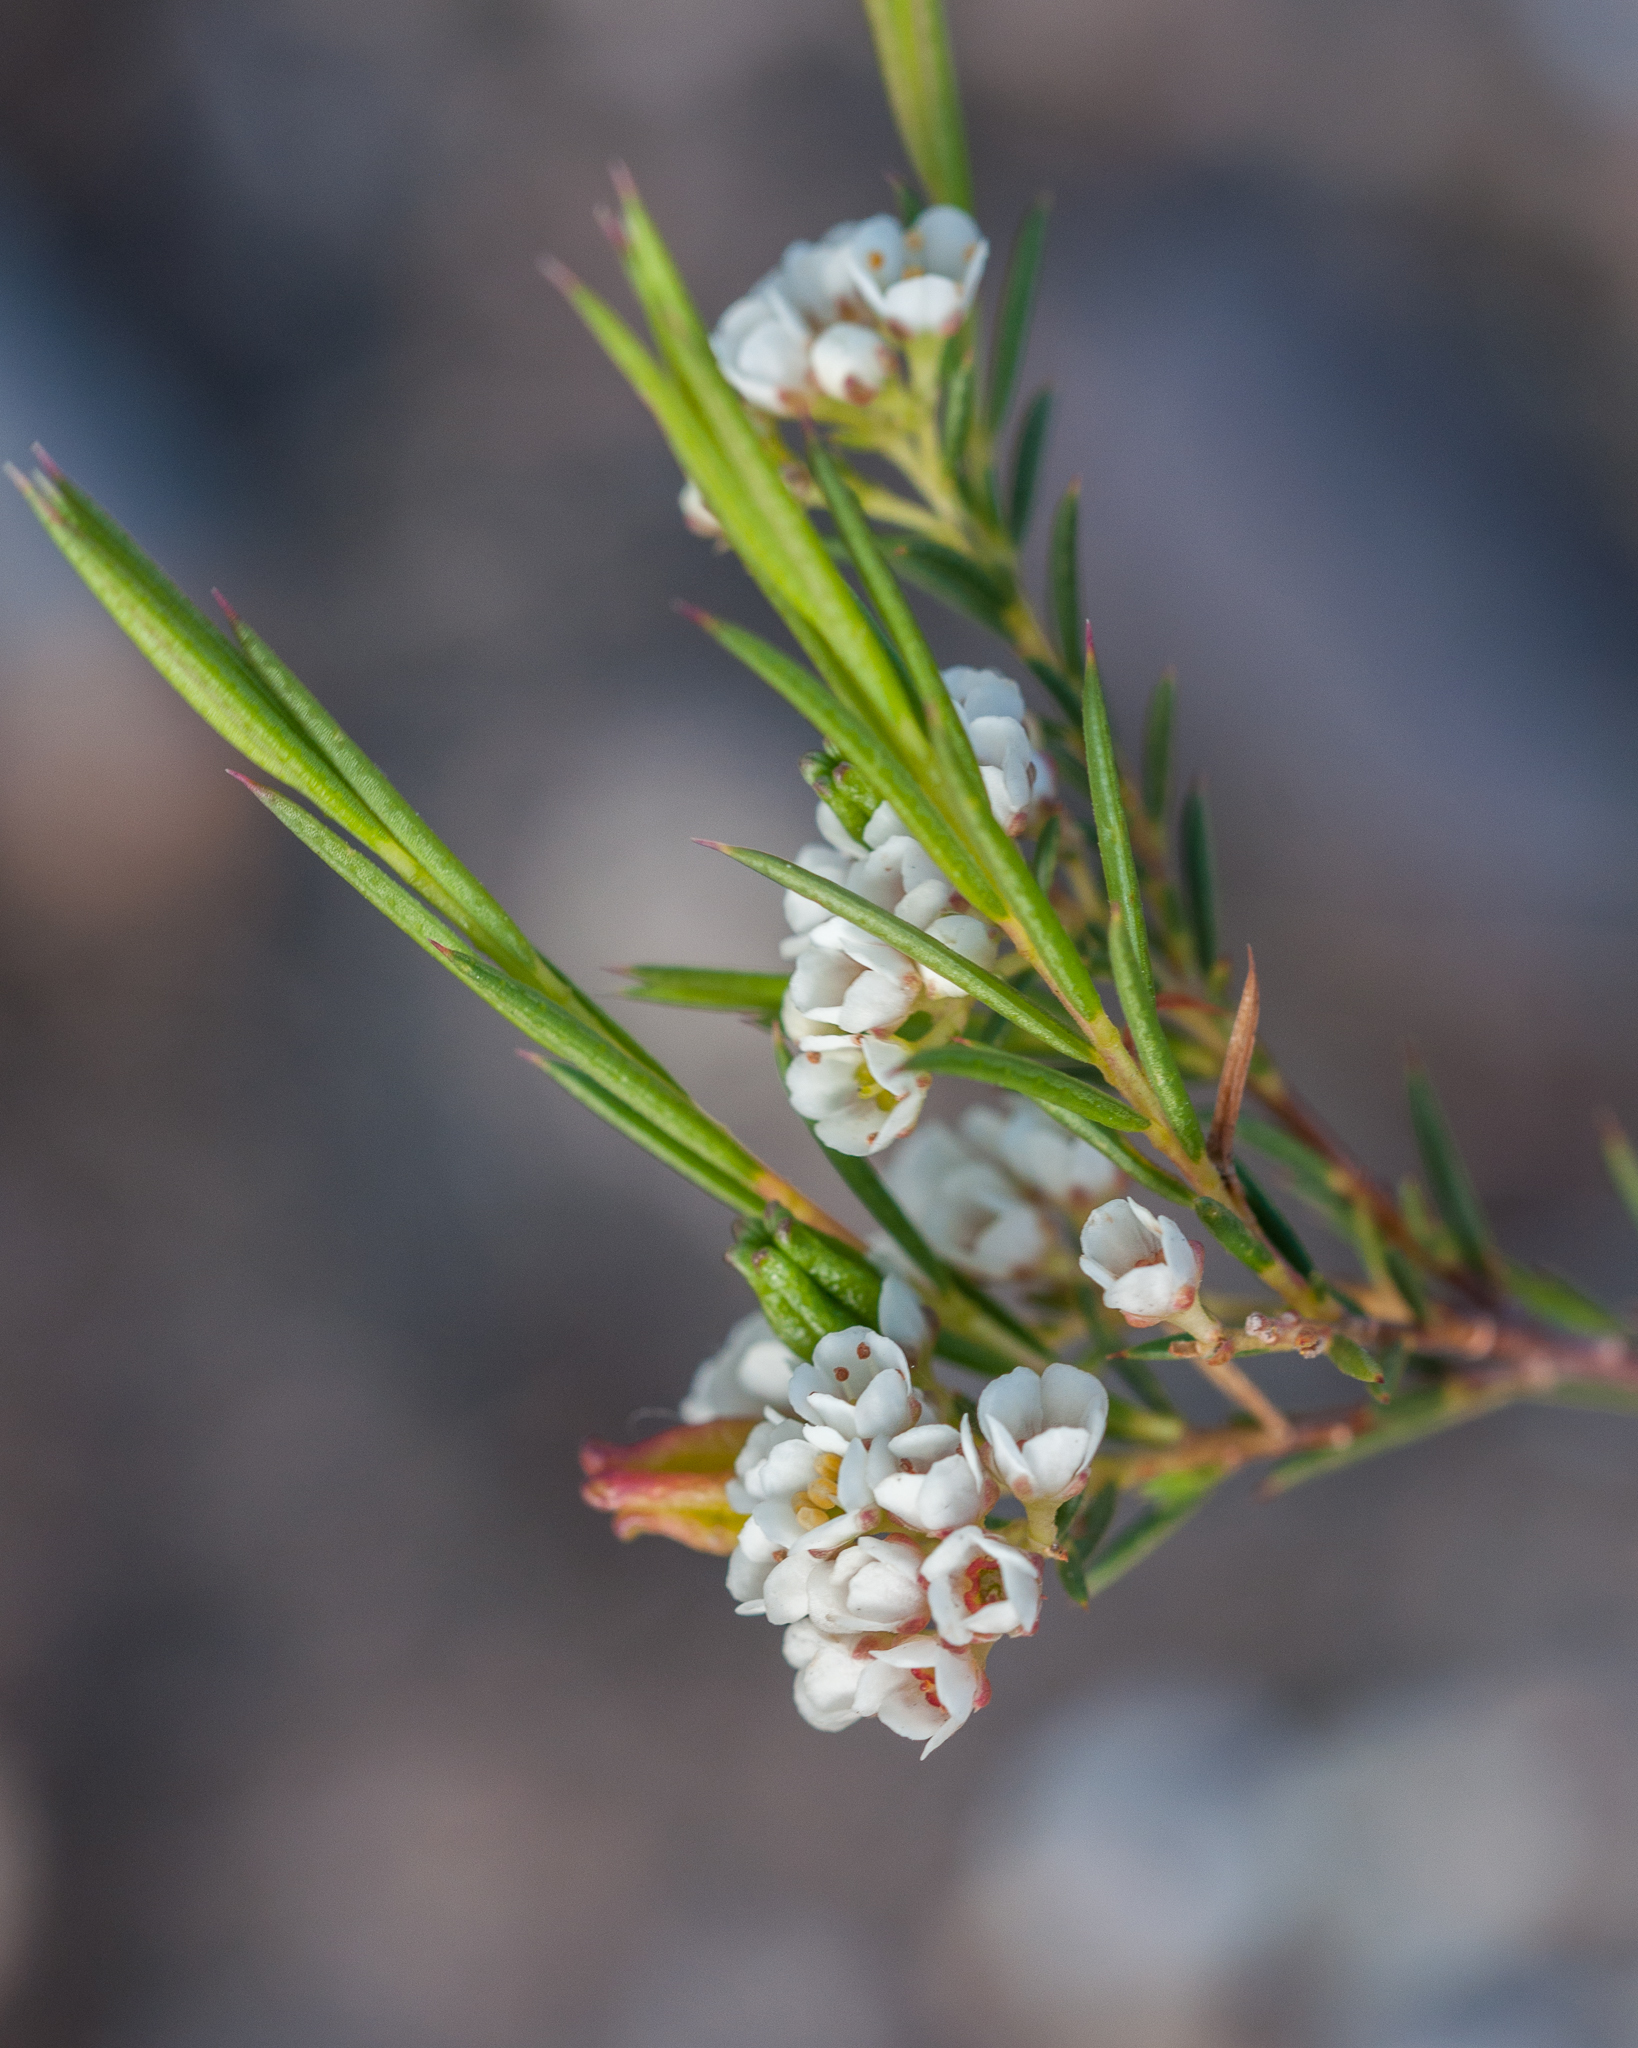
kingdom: Plantae
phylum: Tracheophyta
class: Magnoliopsida
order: Sapindales
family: Rutaceae
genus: Diosma
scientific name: Diosma hirsuta
